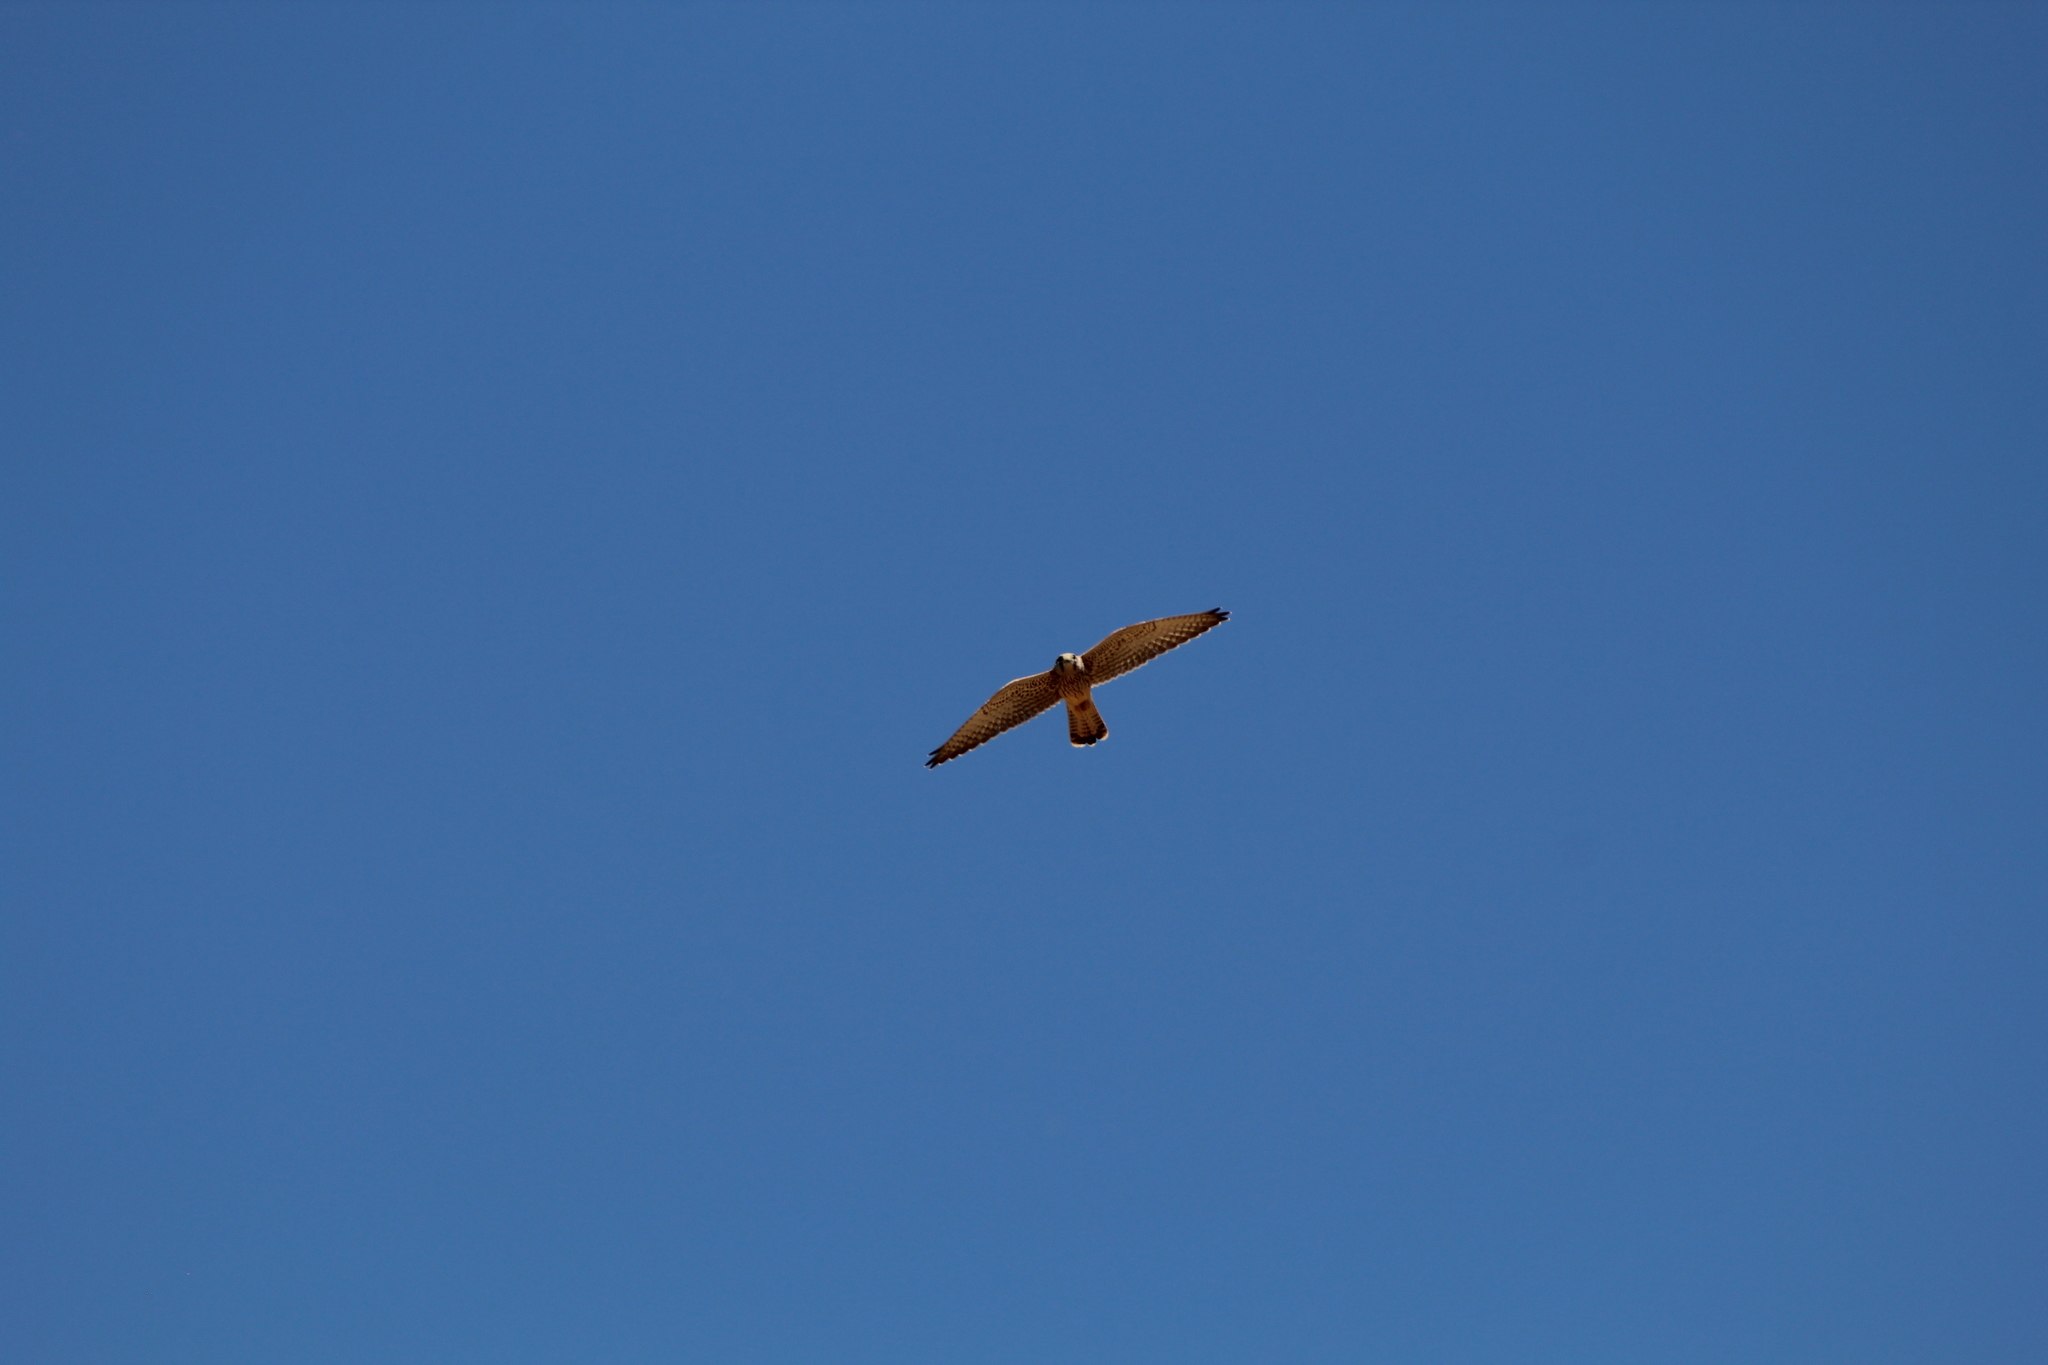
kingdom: Animalia
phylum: Chordata
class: Aves
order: Falconiformes
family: Falconidae
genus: Falco
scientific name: Falco tinnunculus
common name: Common kestrel
